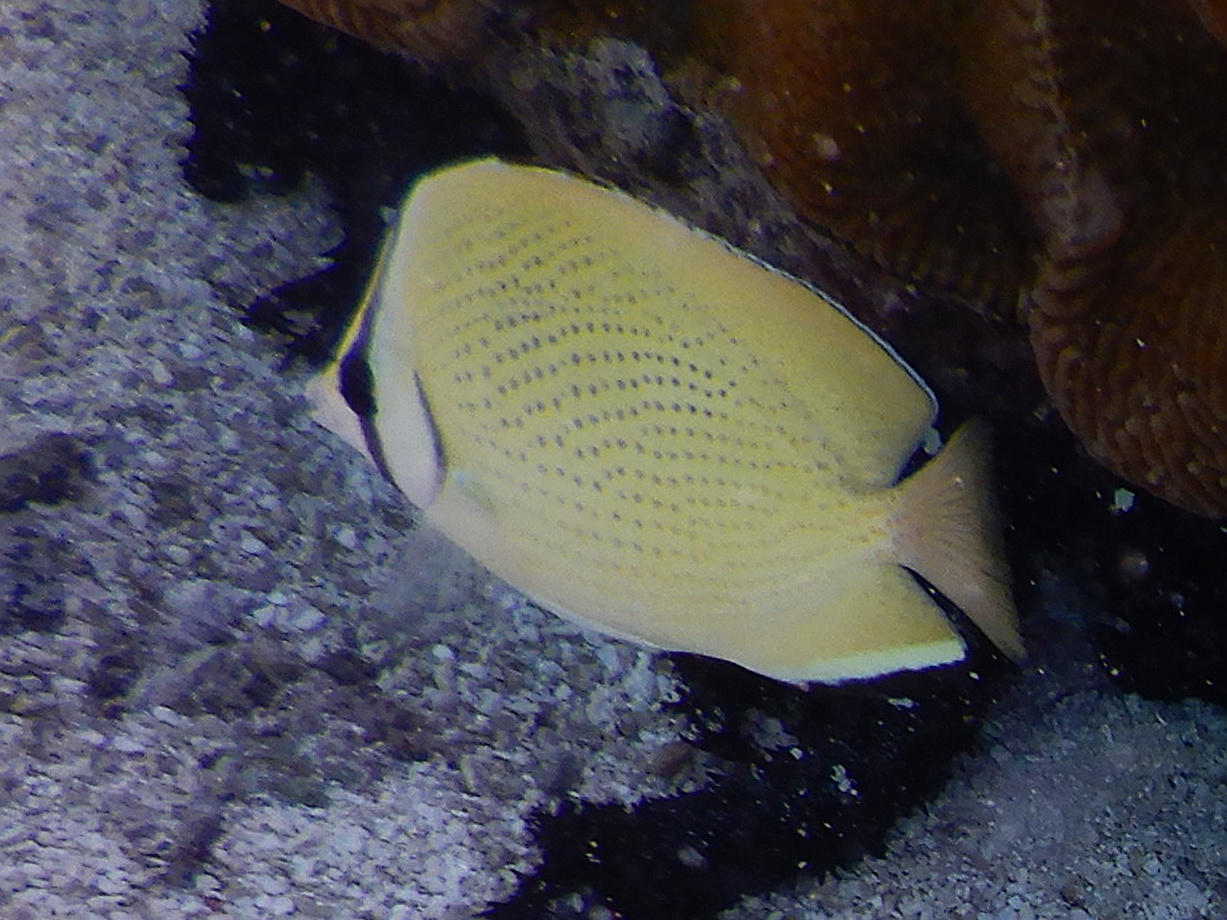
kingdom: Animalia
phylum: Chordata
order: Perciformes
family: Chaetodontidae
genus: Chaetodon
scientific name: Chaetodon citrinellus
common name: Speckled butterflyfish
